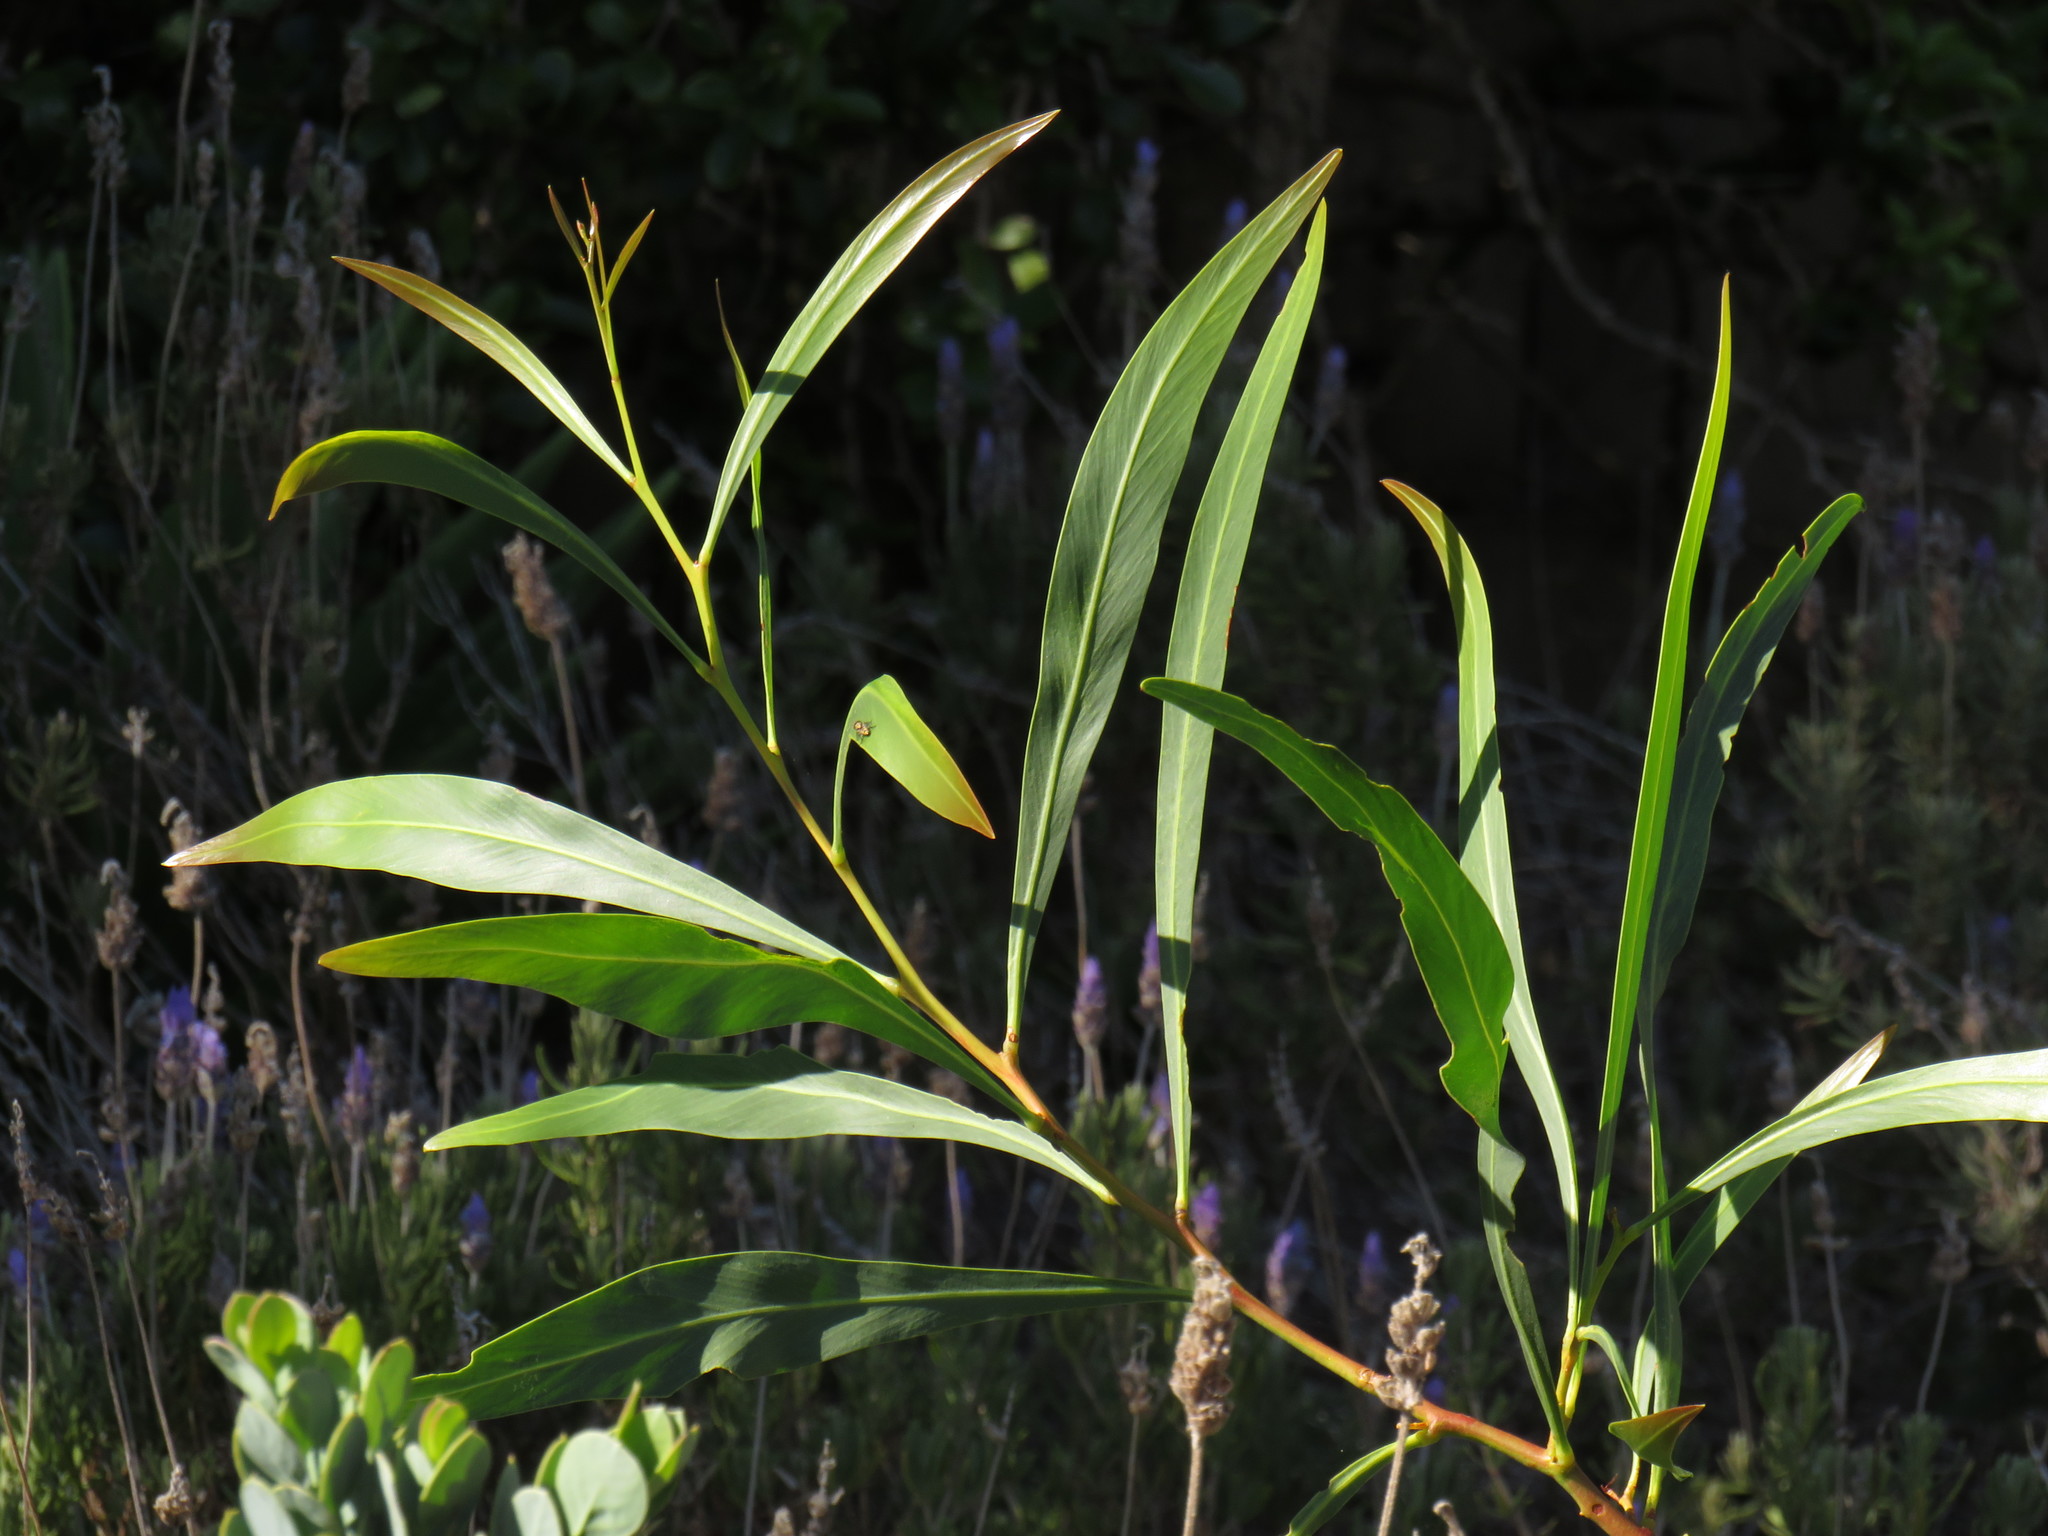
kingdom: Plantae
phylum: Tracheophyta
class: Magnoliopsida
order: Fabales
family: Fabaceae
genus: Acacia
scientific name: Acacia saligna
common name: Orange wattle
